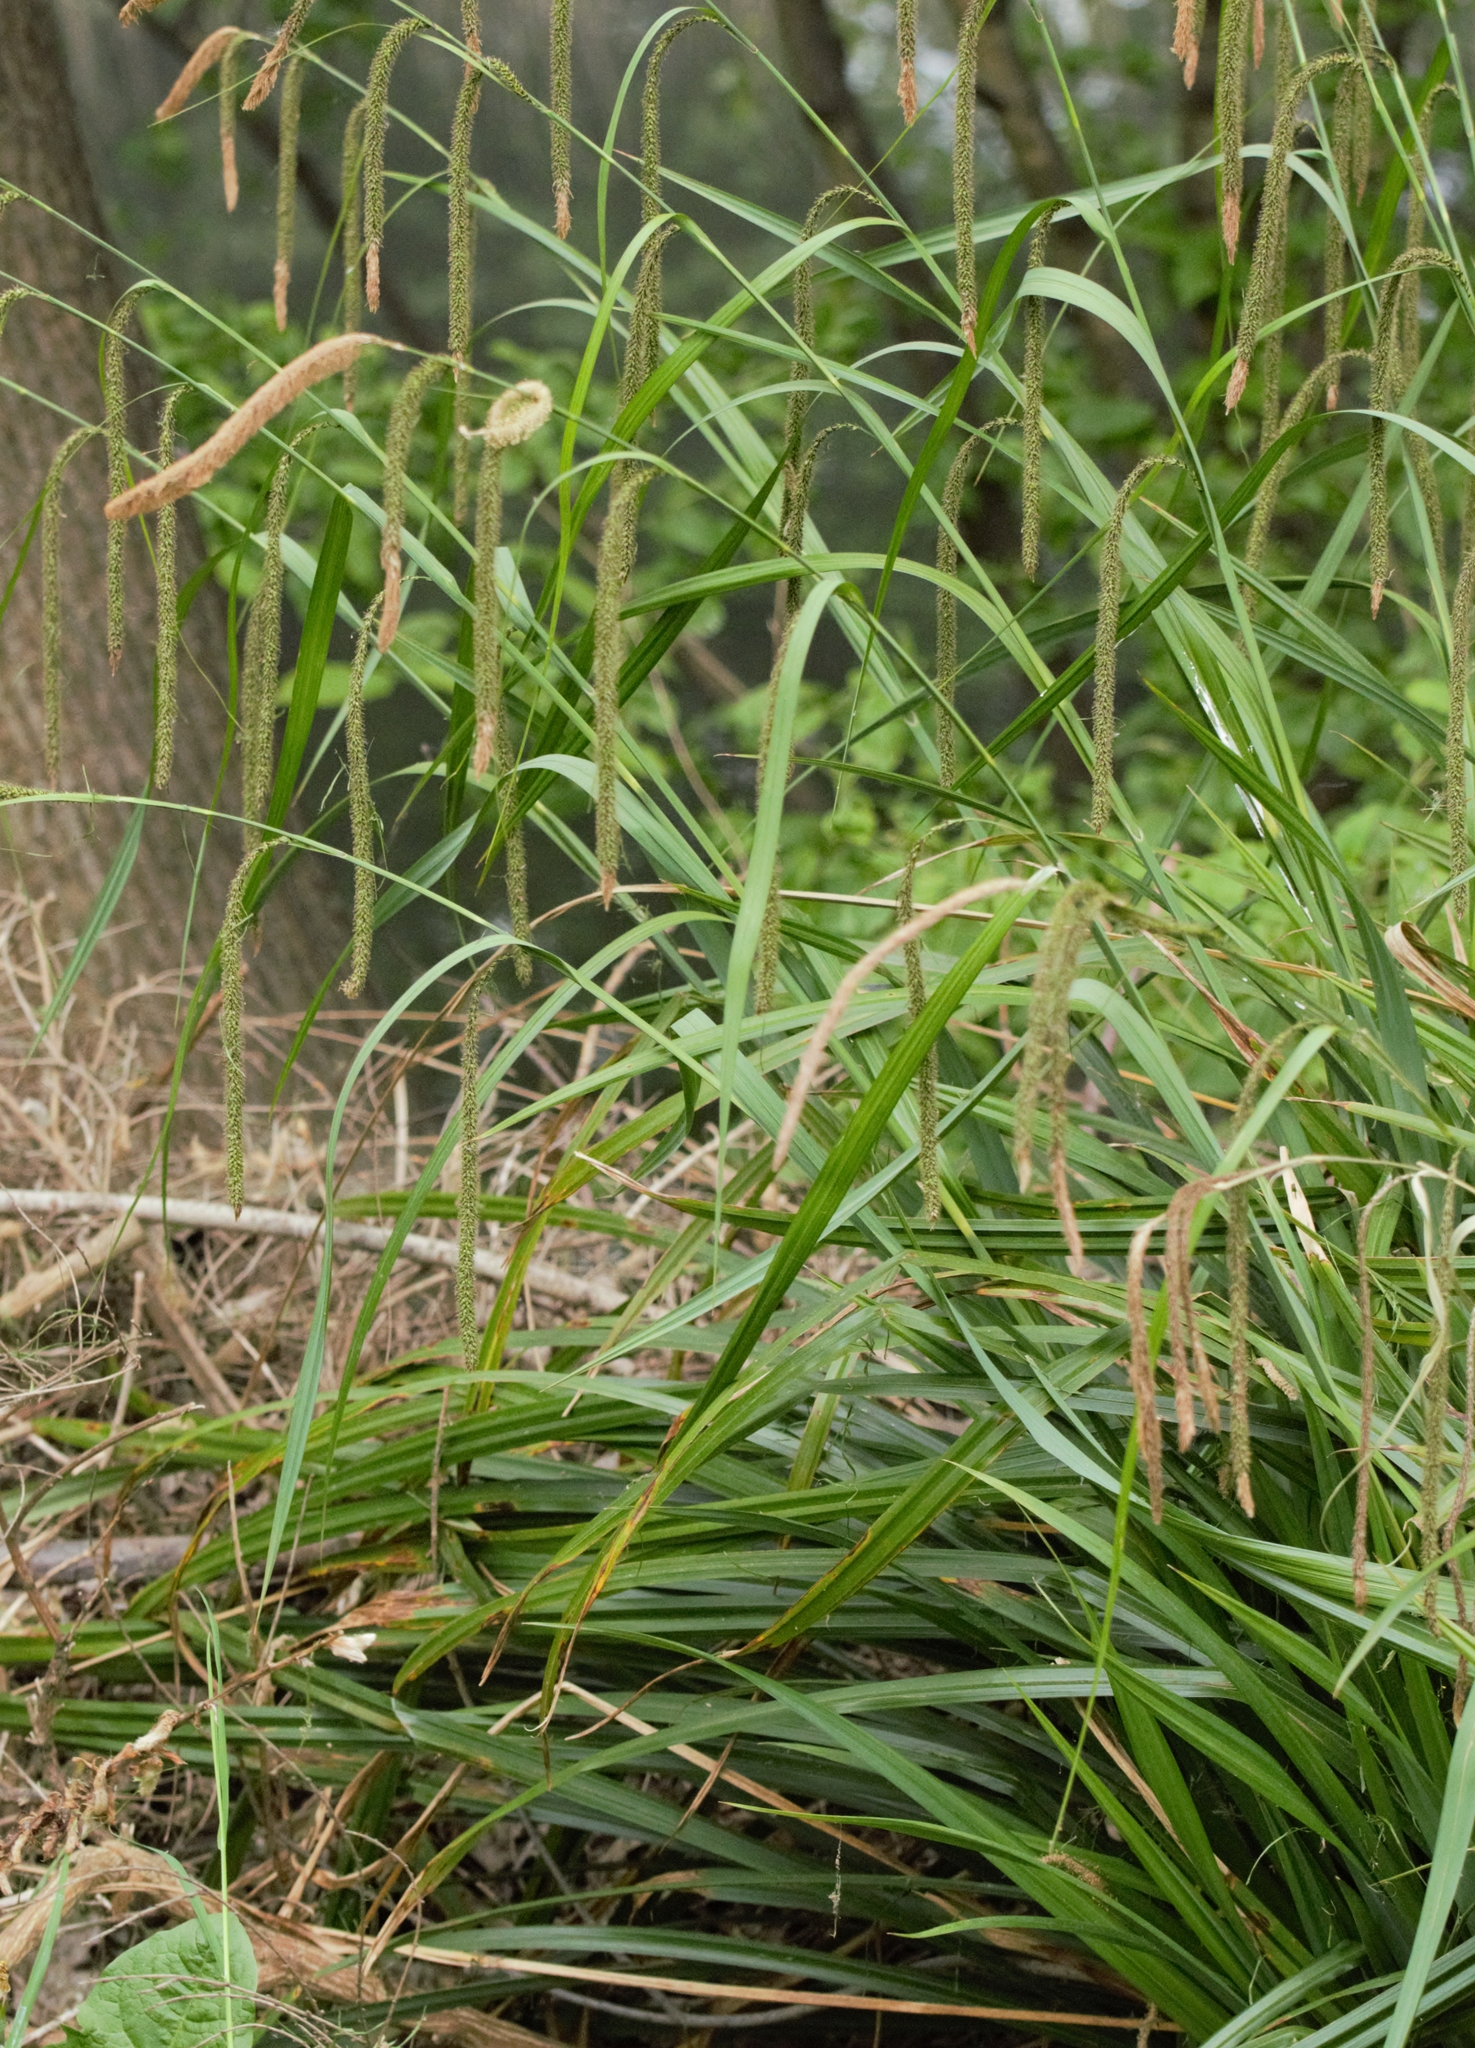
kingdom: Plantae
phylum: Tracheophyta
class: Liliopsida
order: Poales
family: Cyperaceae
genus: Carex
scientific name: Carex pendula
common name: Pendulous sedge
